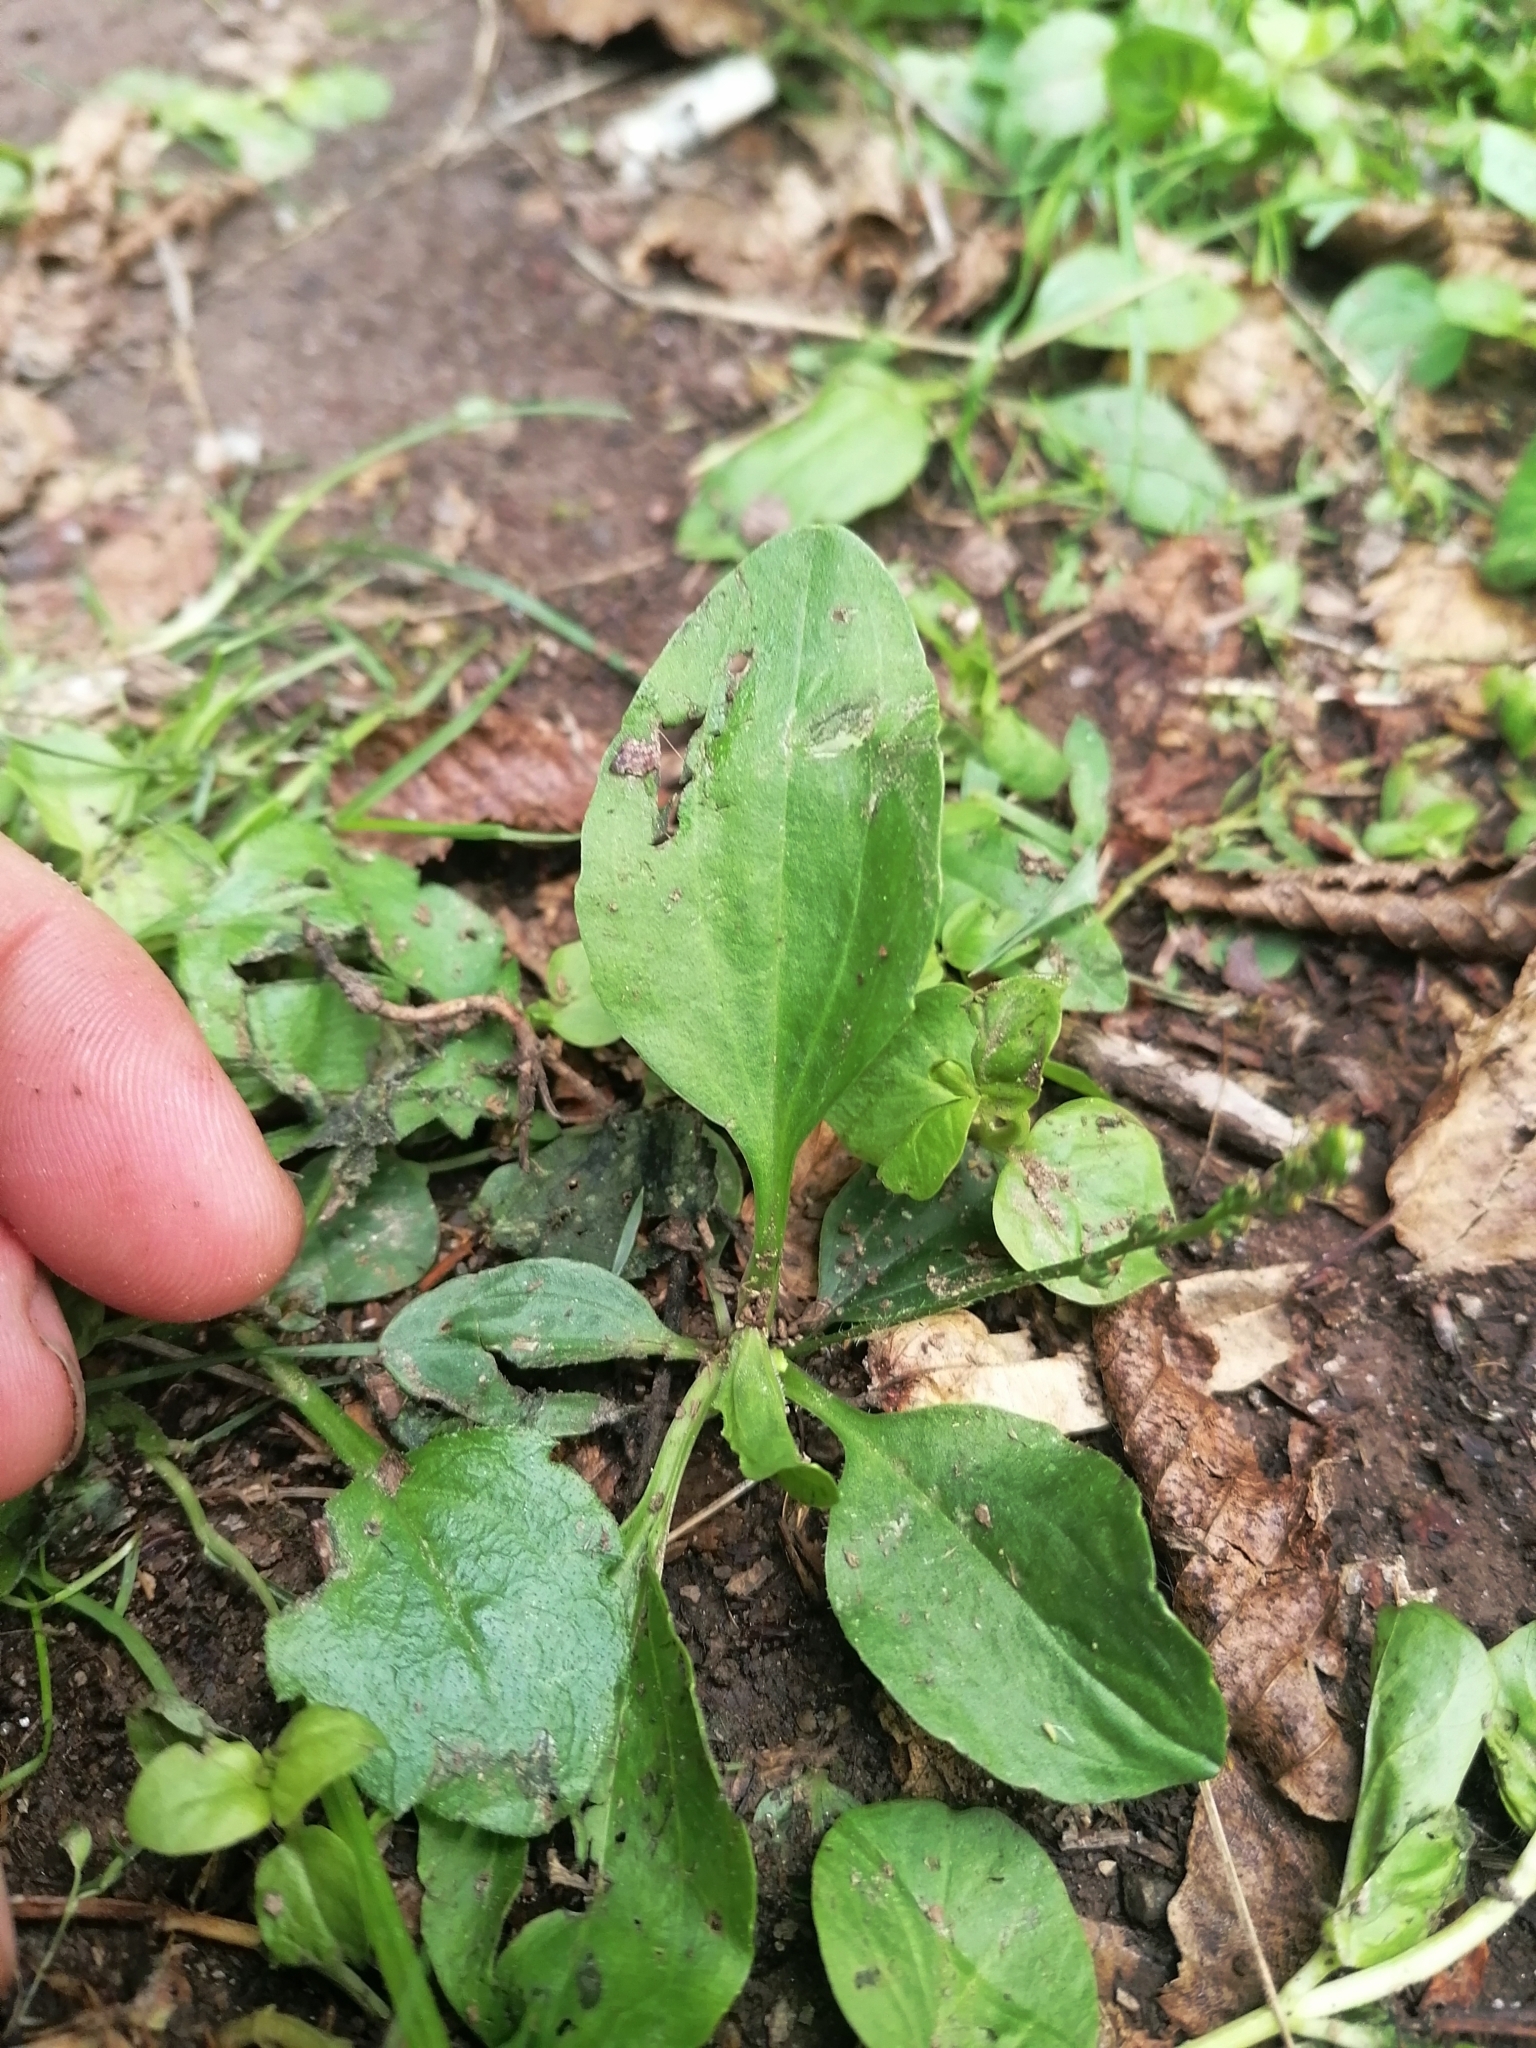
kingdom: Plantae
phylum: Tracheophyta
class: Magnoliopsida
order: Lamiales
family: Plantaginaceae
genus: Plantago
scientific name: Plantago major
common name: Common plantain
